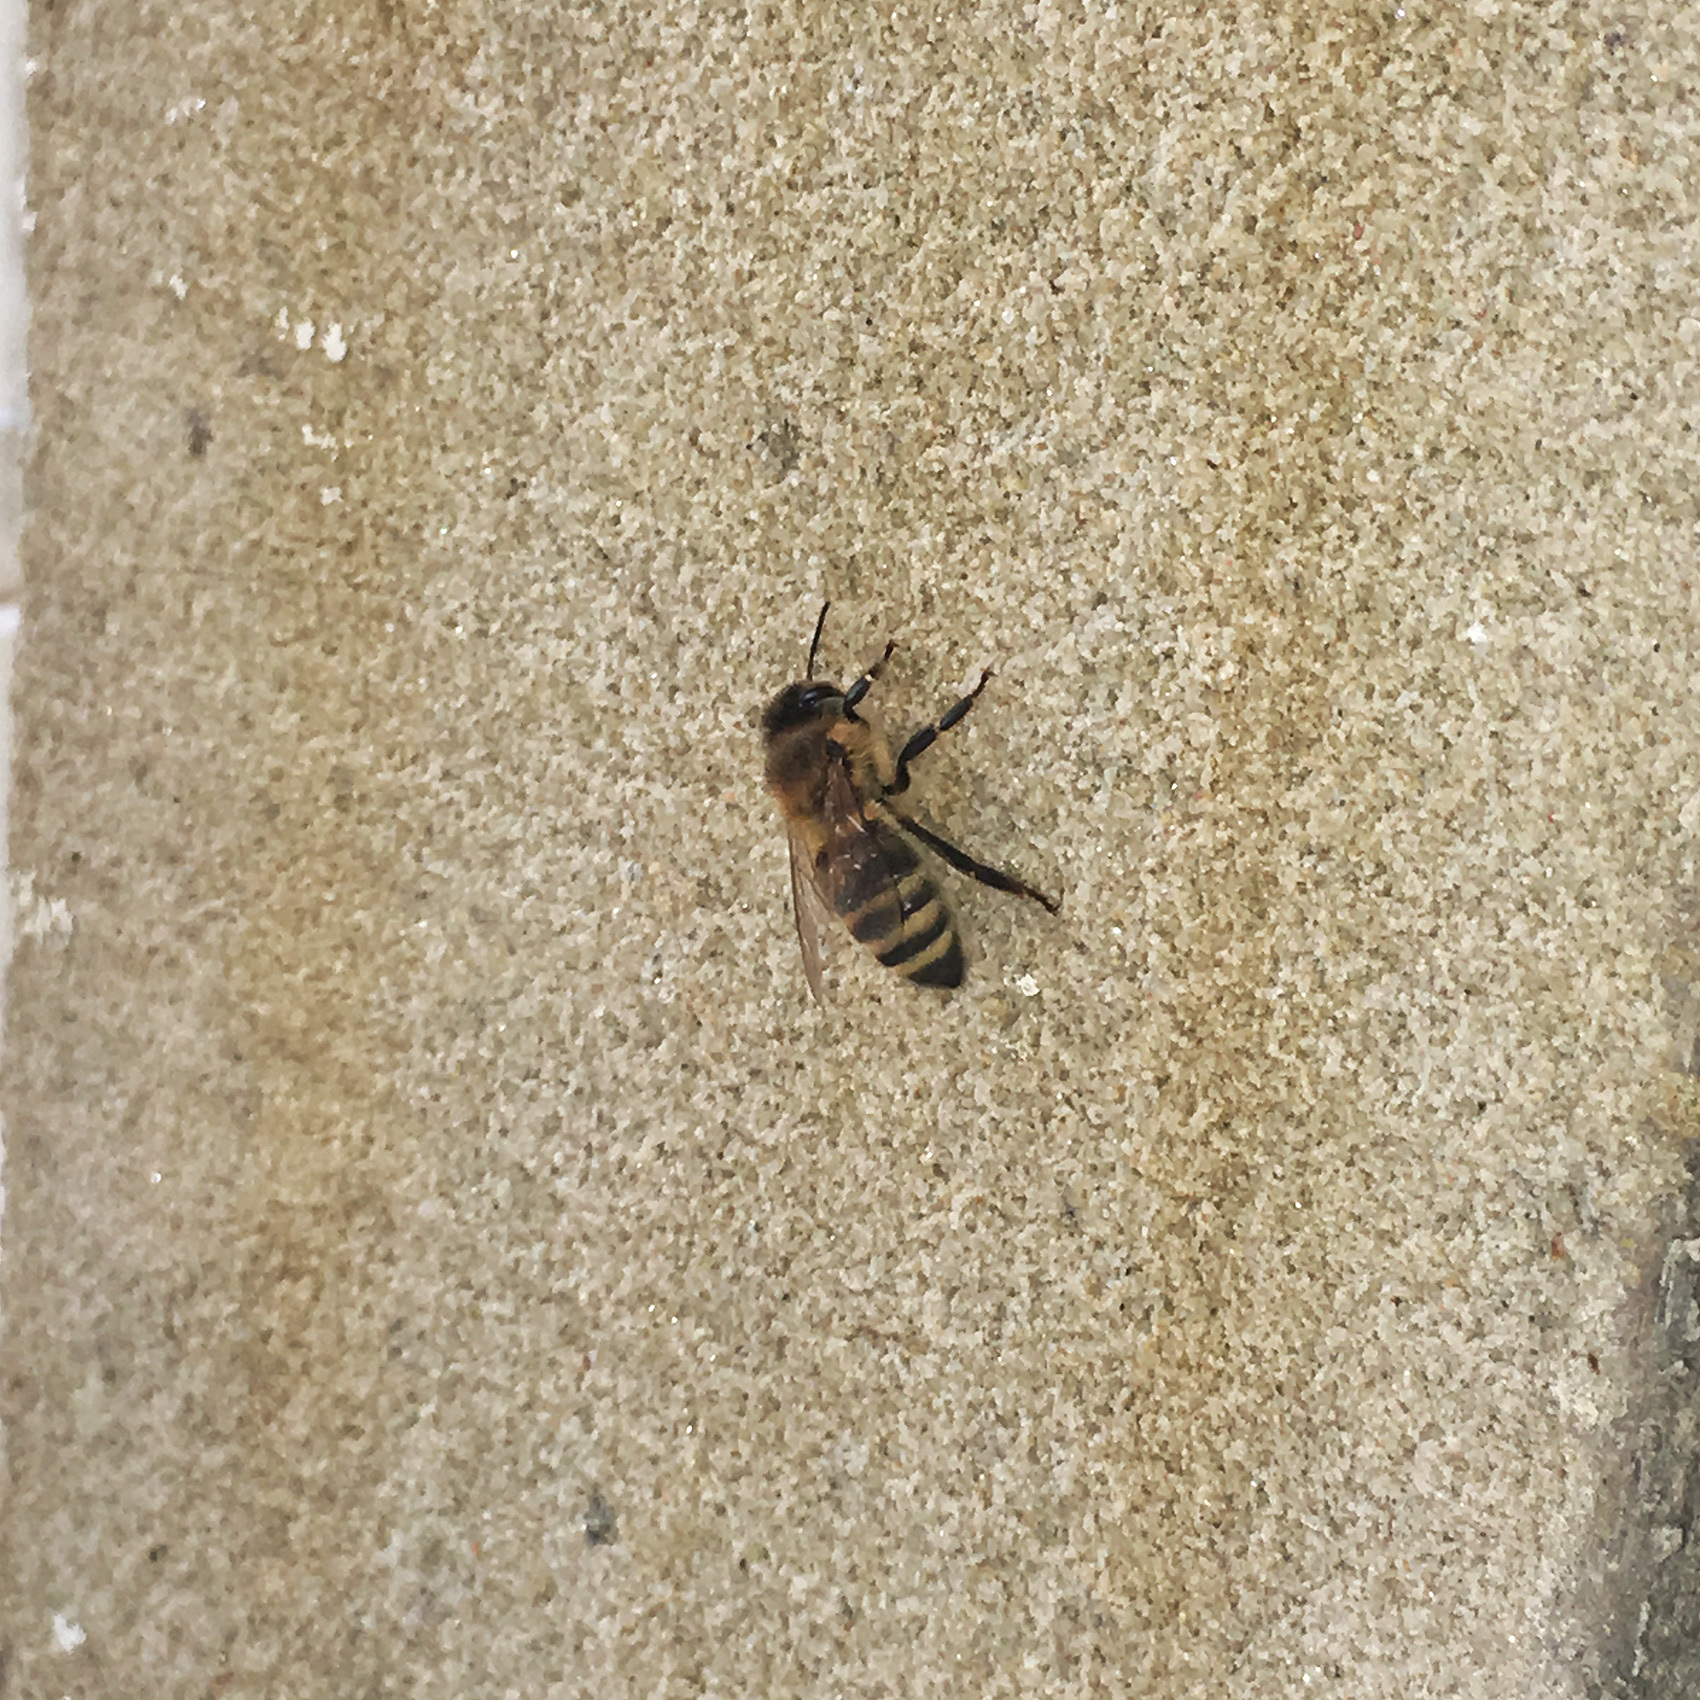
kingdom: Animalia
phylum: Arthropoda
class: Insecta
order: Hymenoptera
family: Apidae
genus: Apis
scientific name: Apis mellifera
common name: Honey bee
